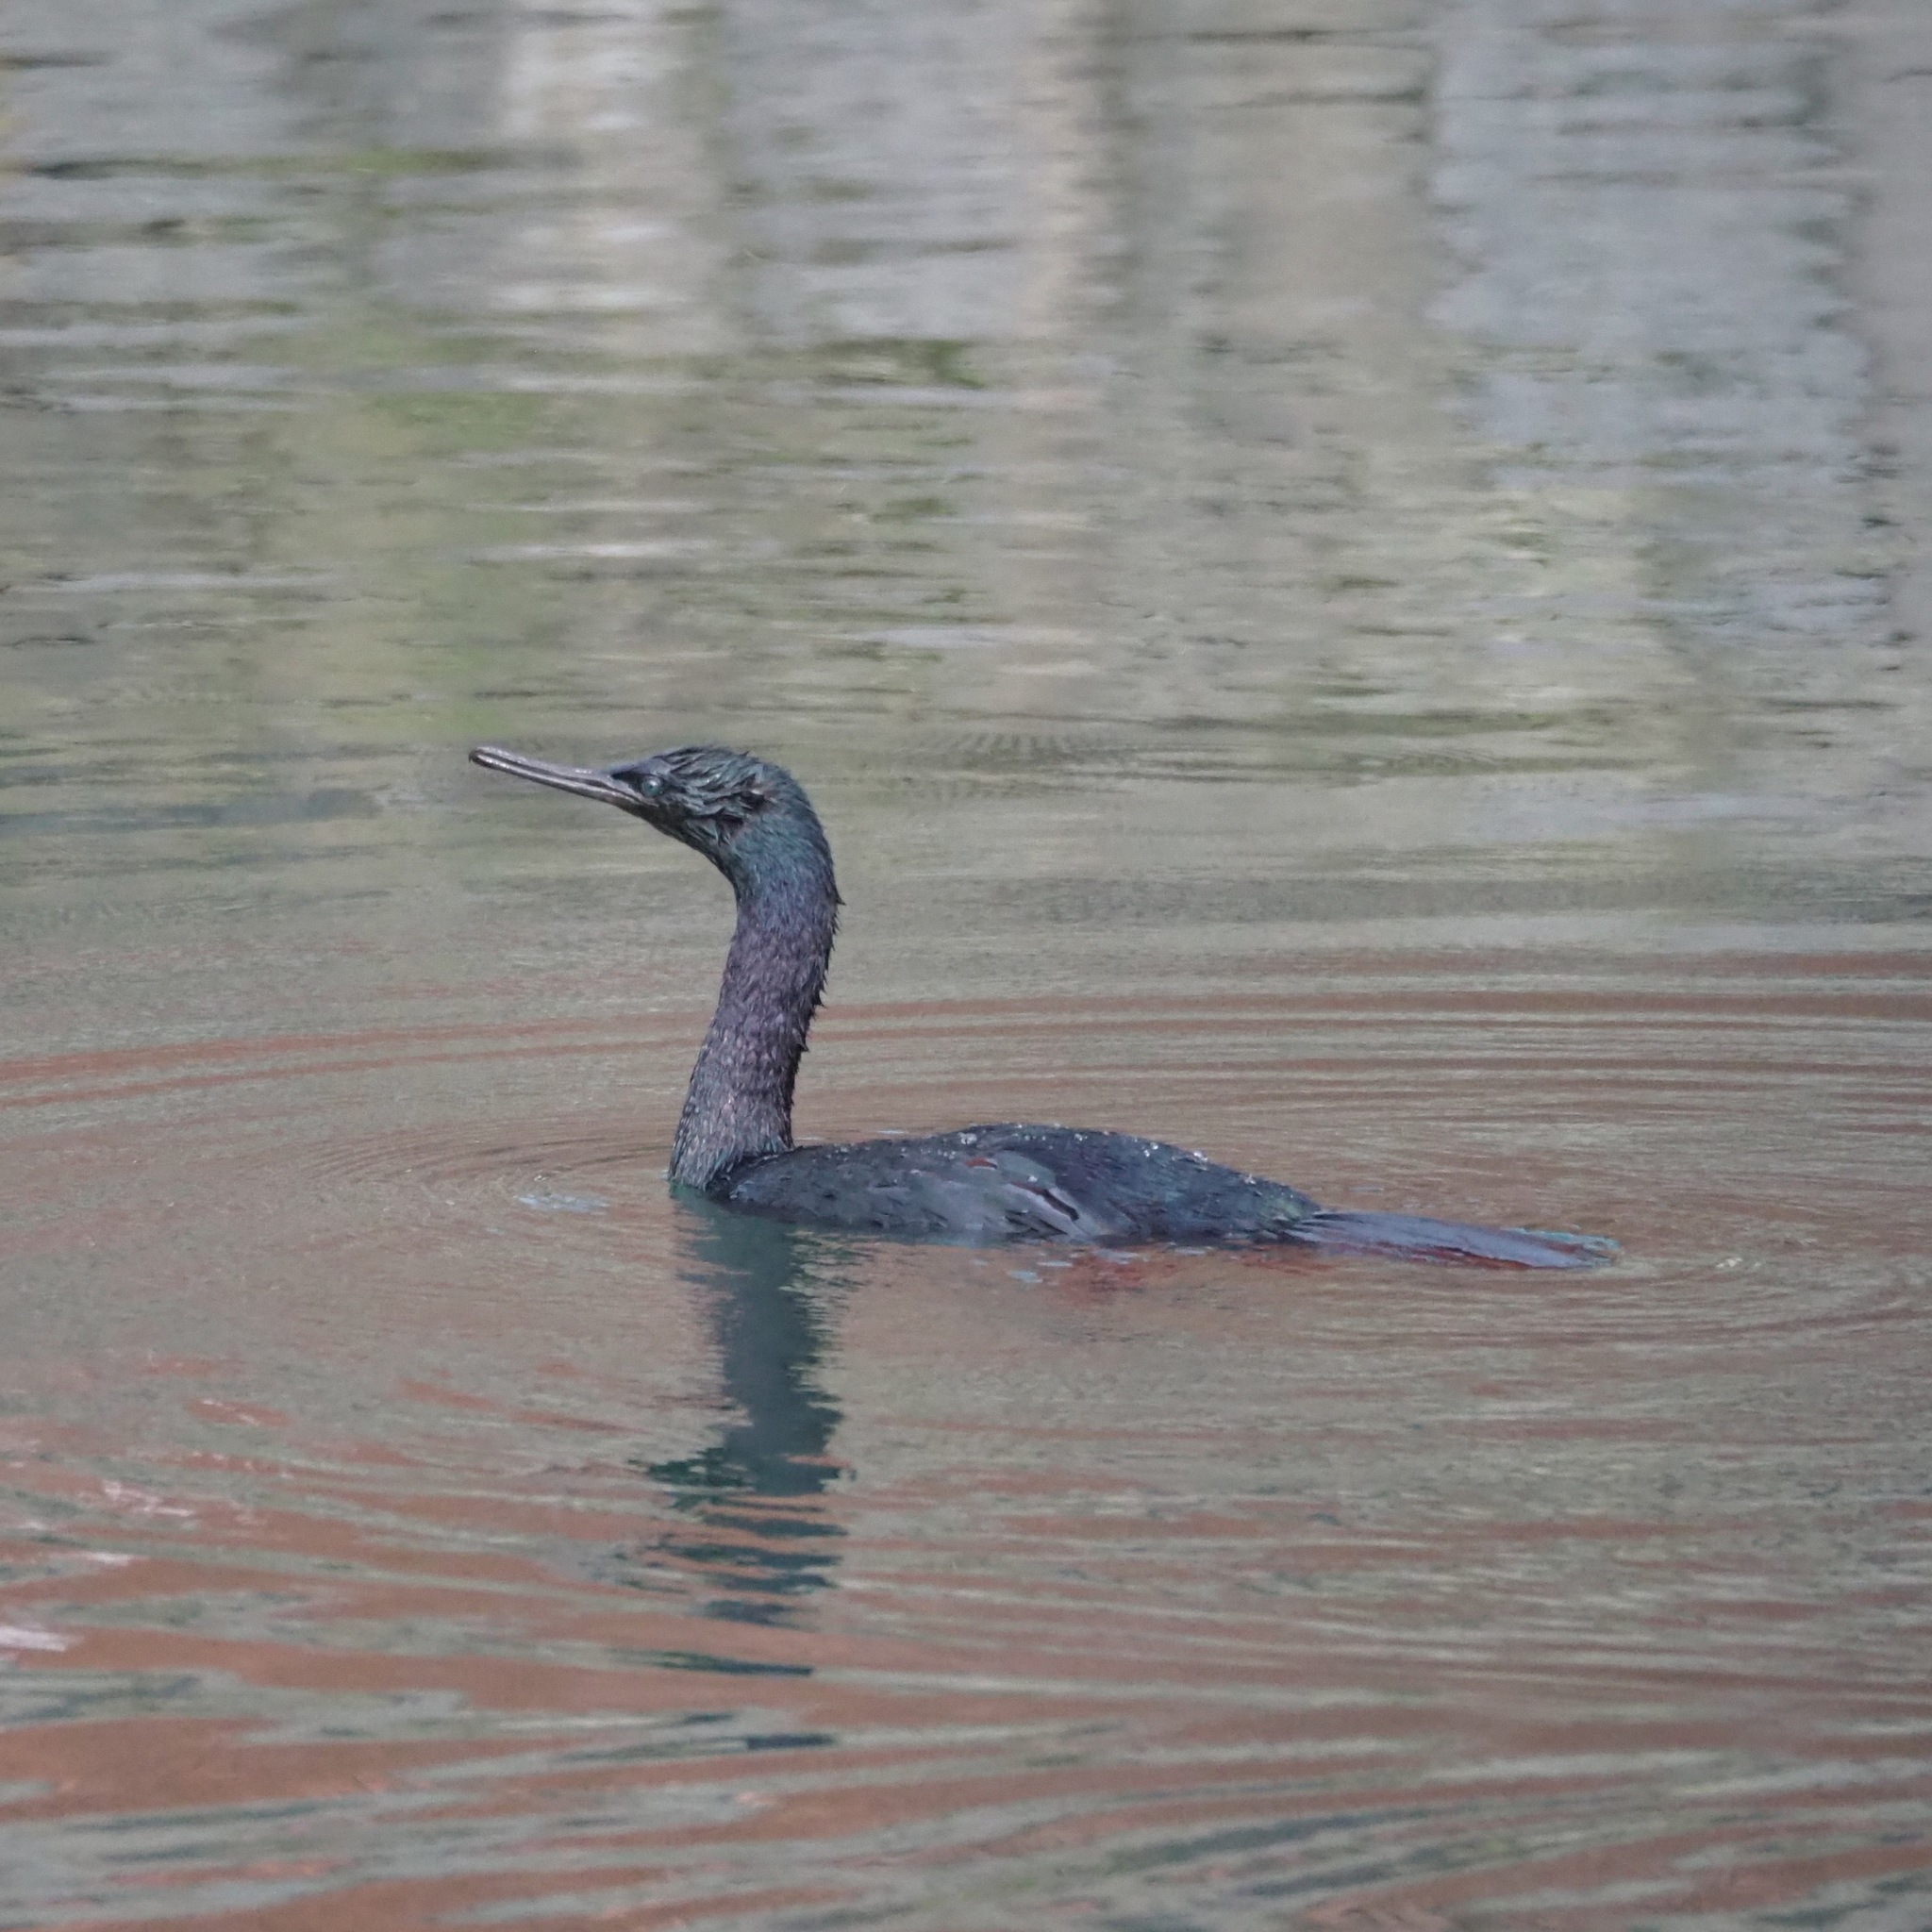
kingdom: Animalia
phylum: Chordata
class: Aves
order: Suliformes
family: Phalacrocoracidae
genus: Phalacrocorax
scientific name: Phalacrocorax pelagicus
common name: Pelagic cormorant
